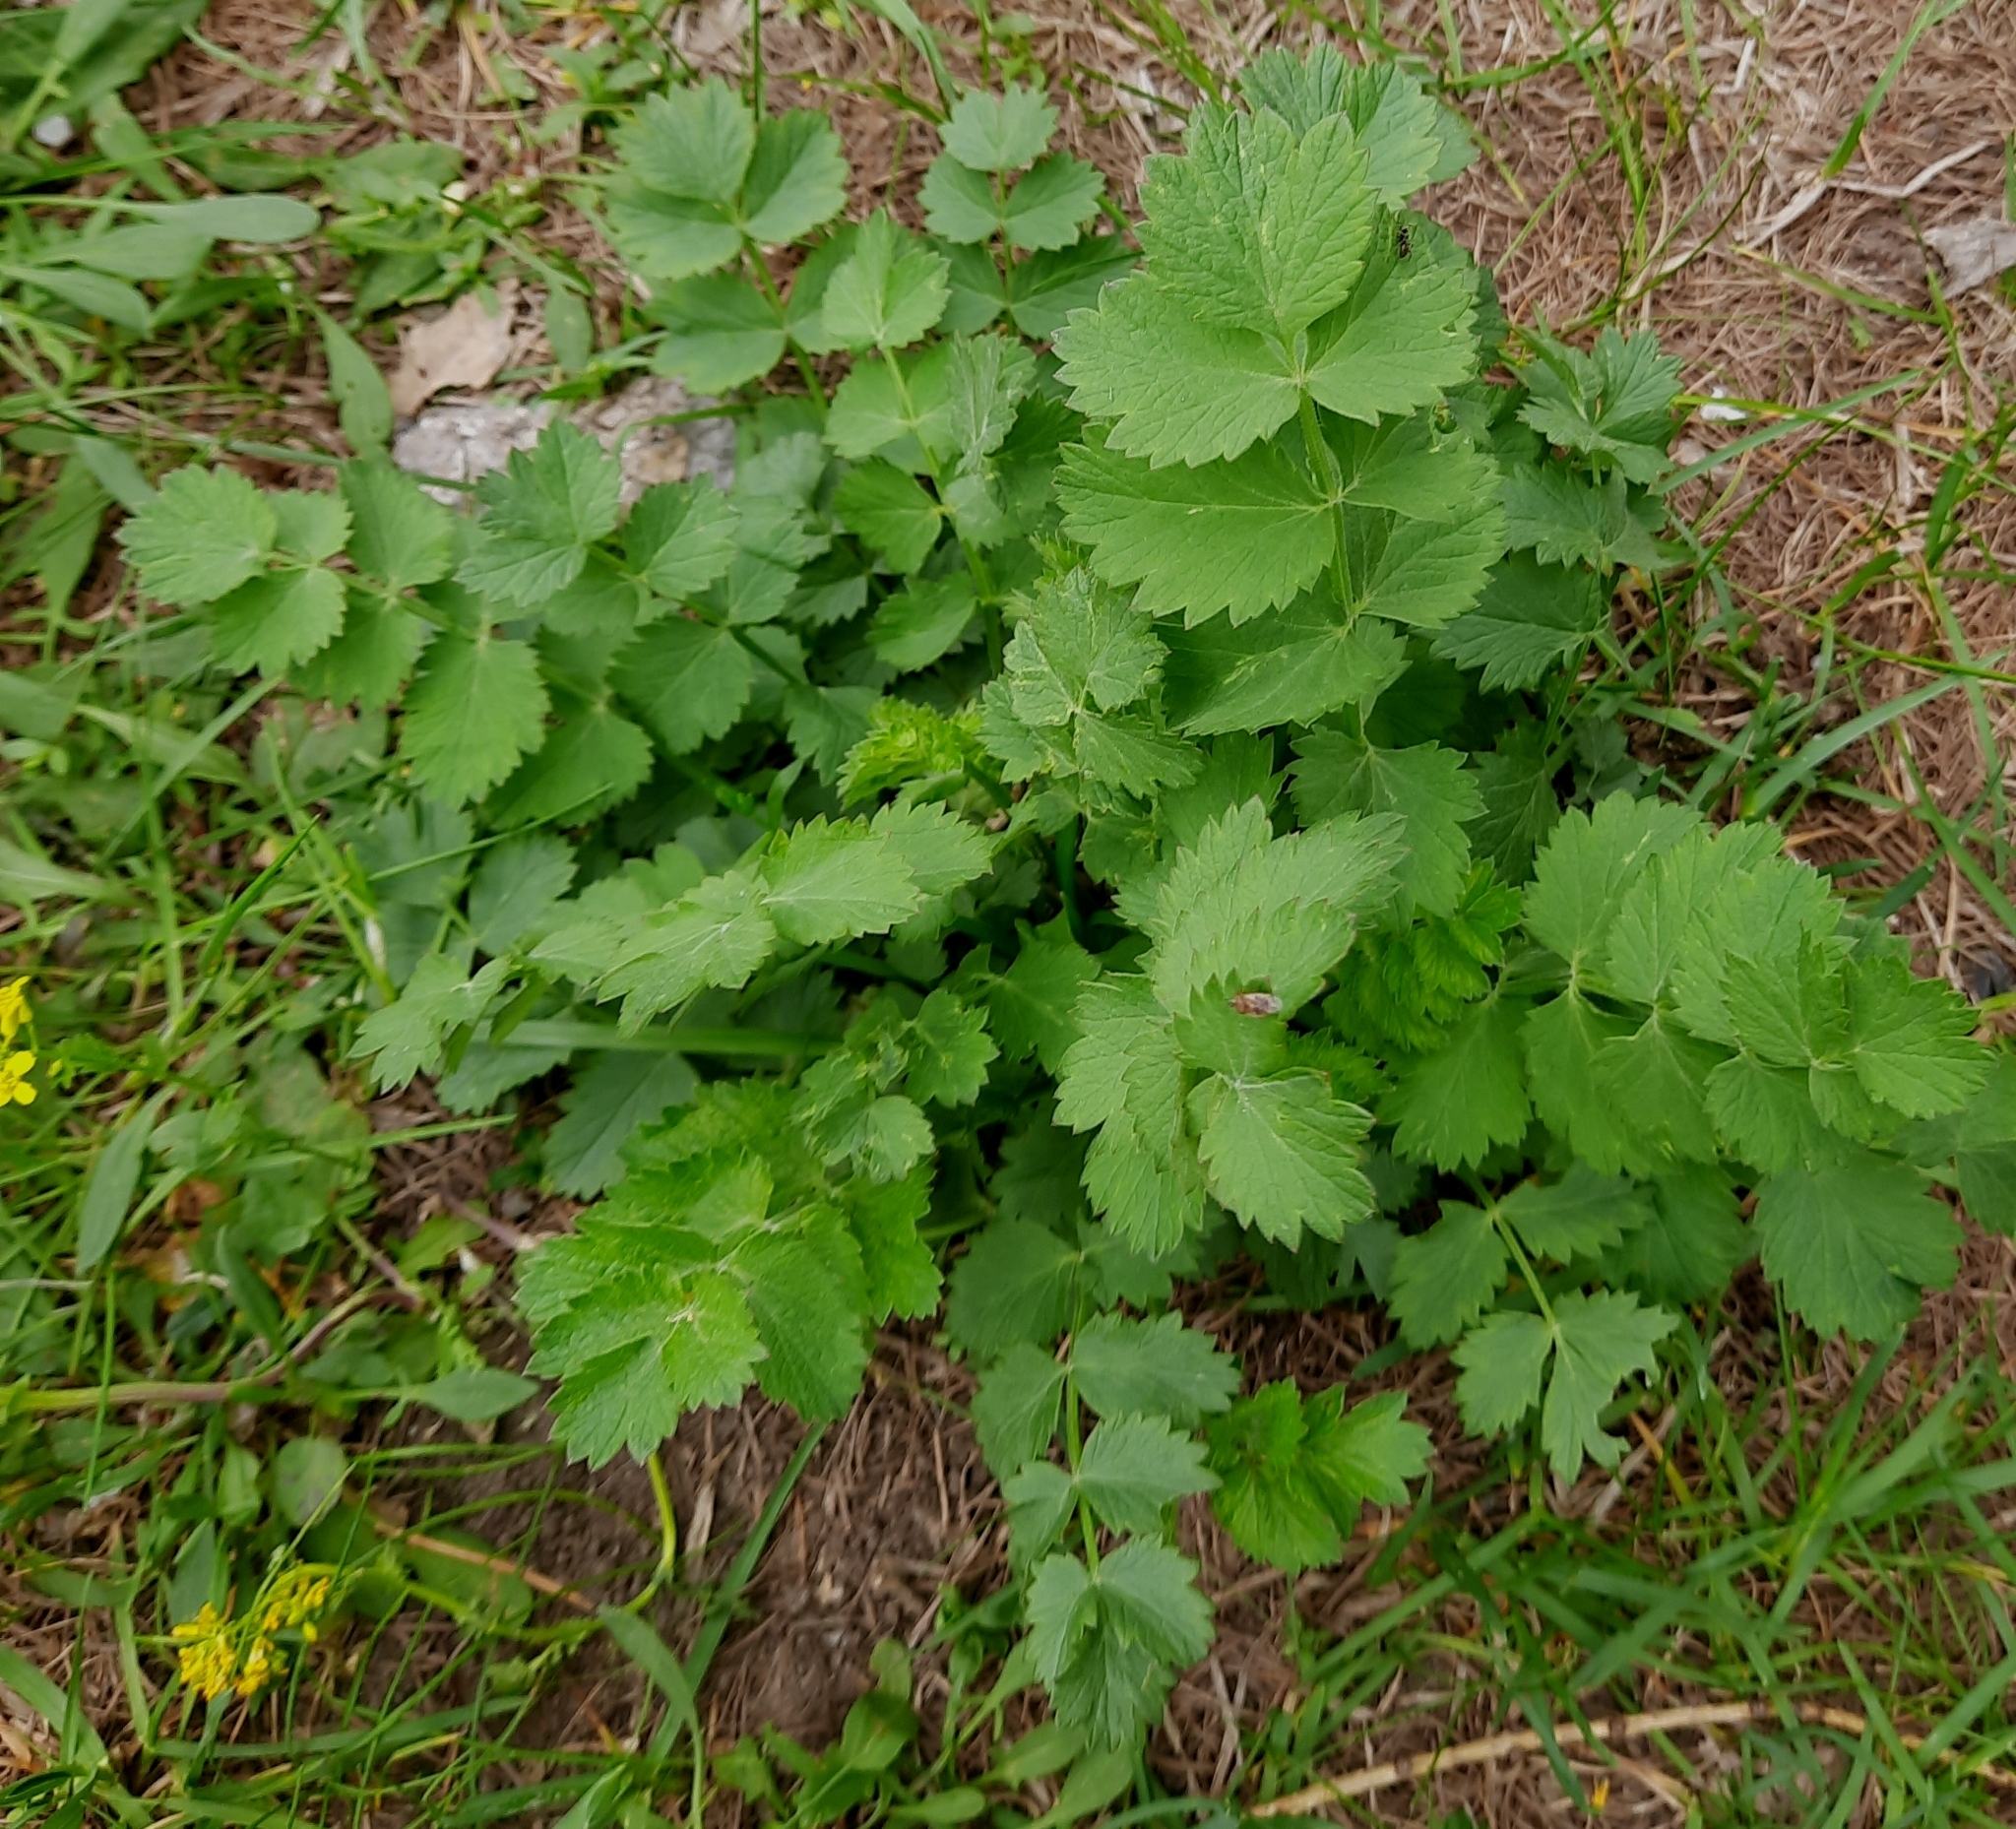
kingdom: Plantae
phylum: Tracheophyta
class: Magnoliopsida
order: Apiales
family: Apiaceae
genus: Pimpinella
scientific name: Pimpinella saxifraga
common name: Burnet-saxifrage
